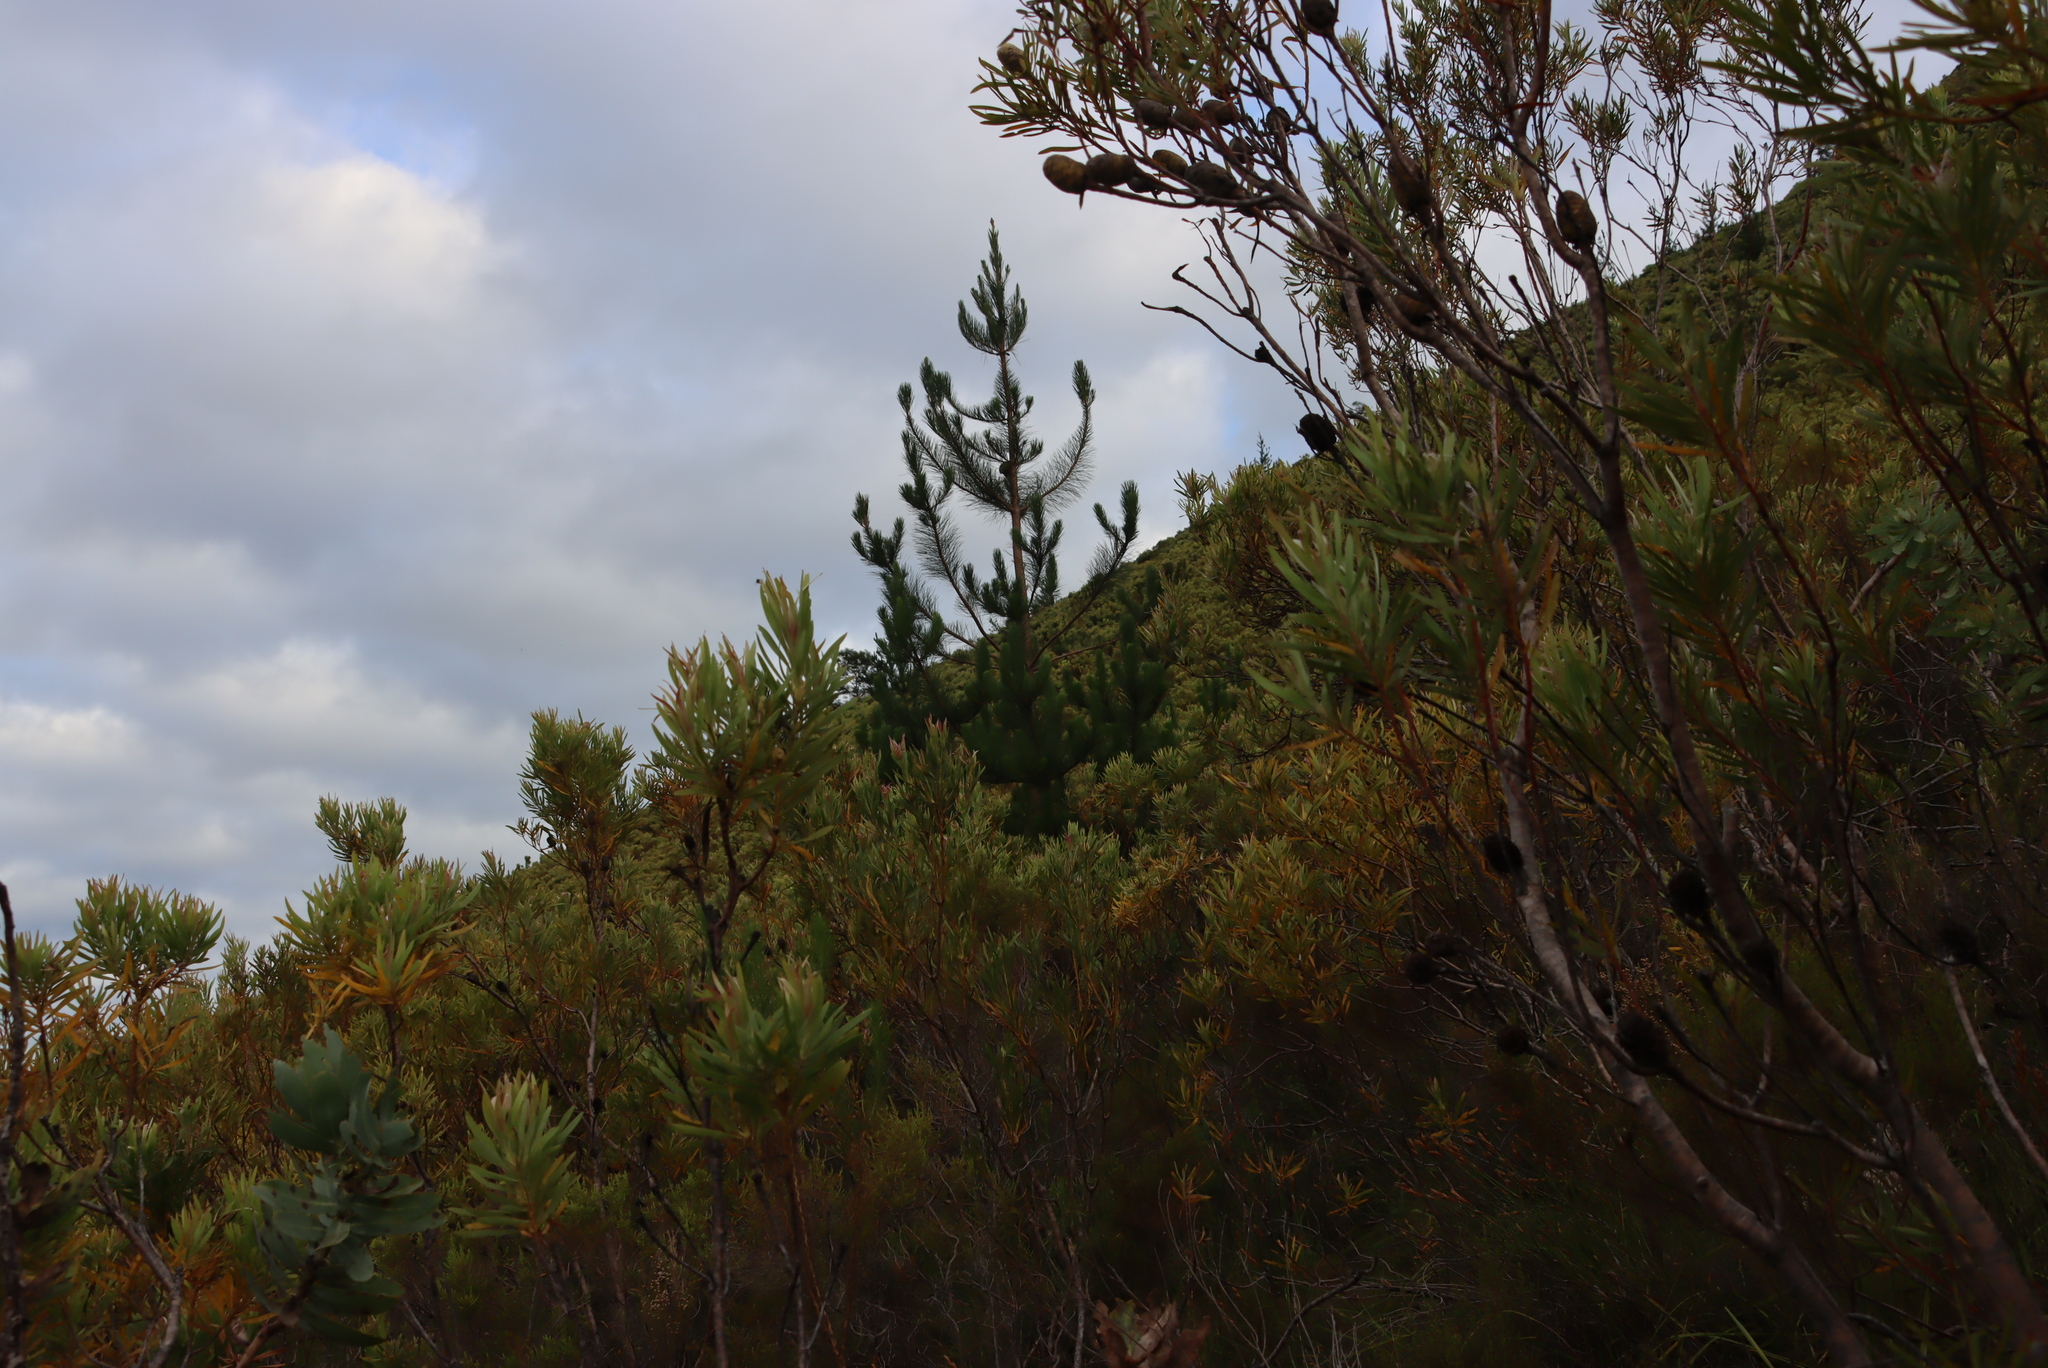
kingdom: Plantae
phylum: Tracheophyta
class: Pinopsida
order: Pinales
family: Pinaceae
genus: Pinus
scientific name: Pinus radiata
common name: Monterey pine
